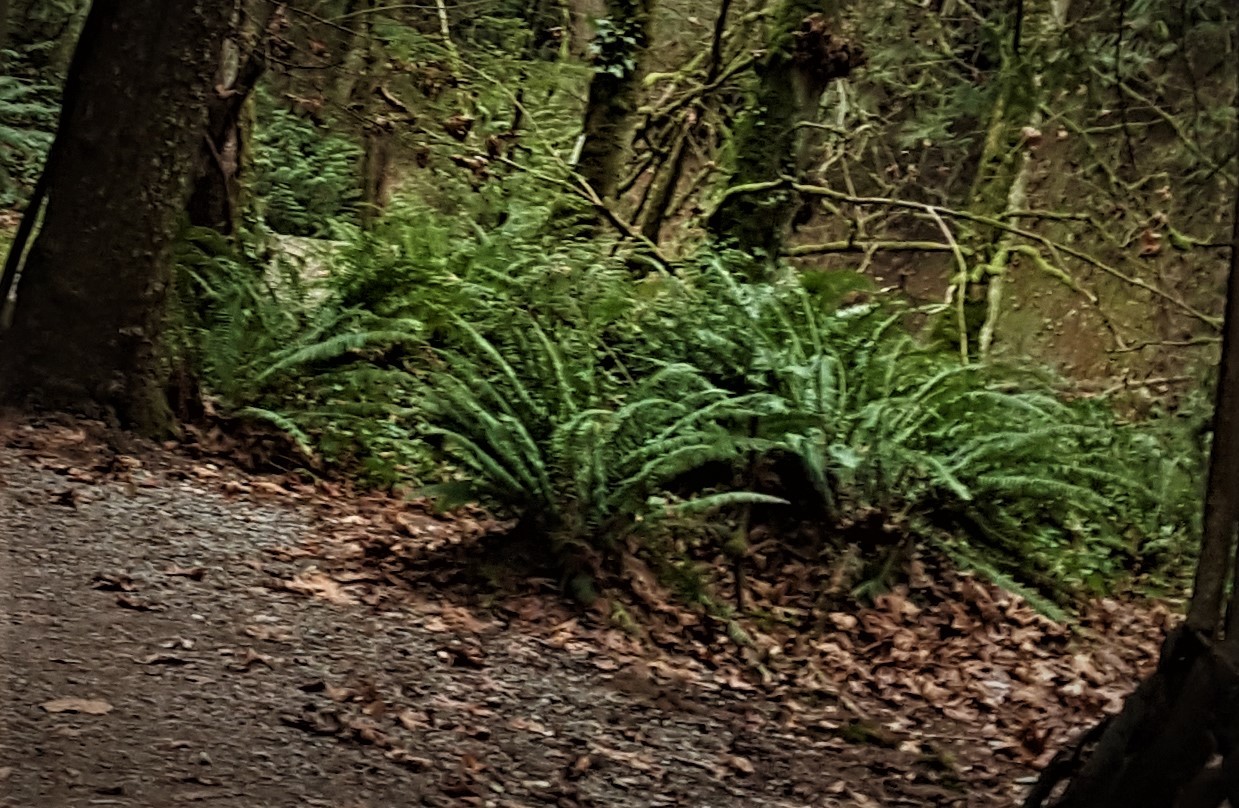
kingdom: Plantae
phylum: Tracheophyta
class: Polypodiopsida
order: Polypodiales
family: Dryopteridaceae
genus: Polystichum
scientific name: Polystichum munitum
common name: Western sword-fern
